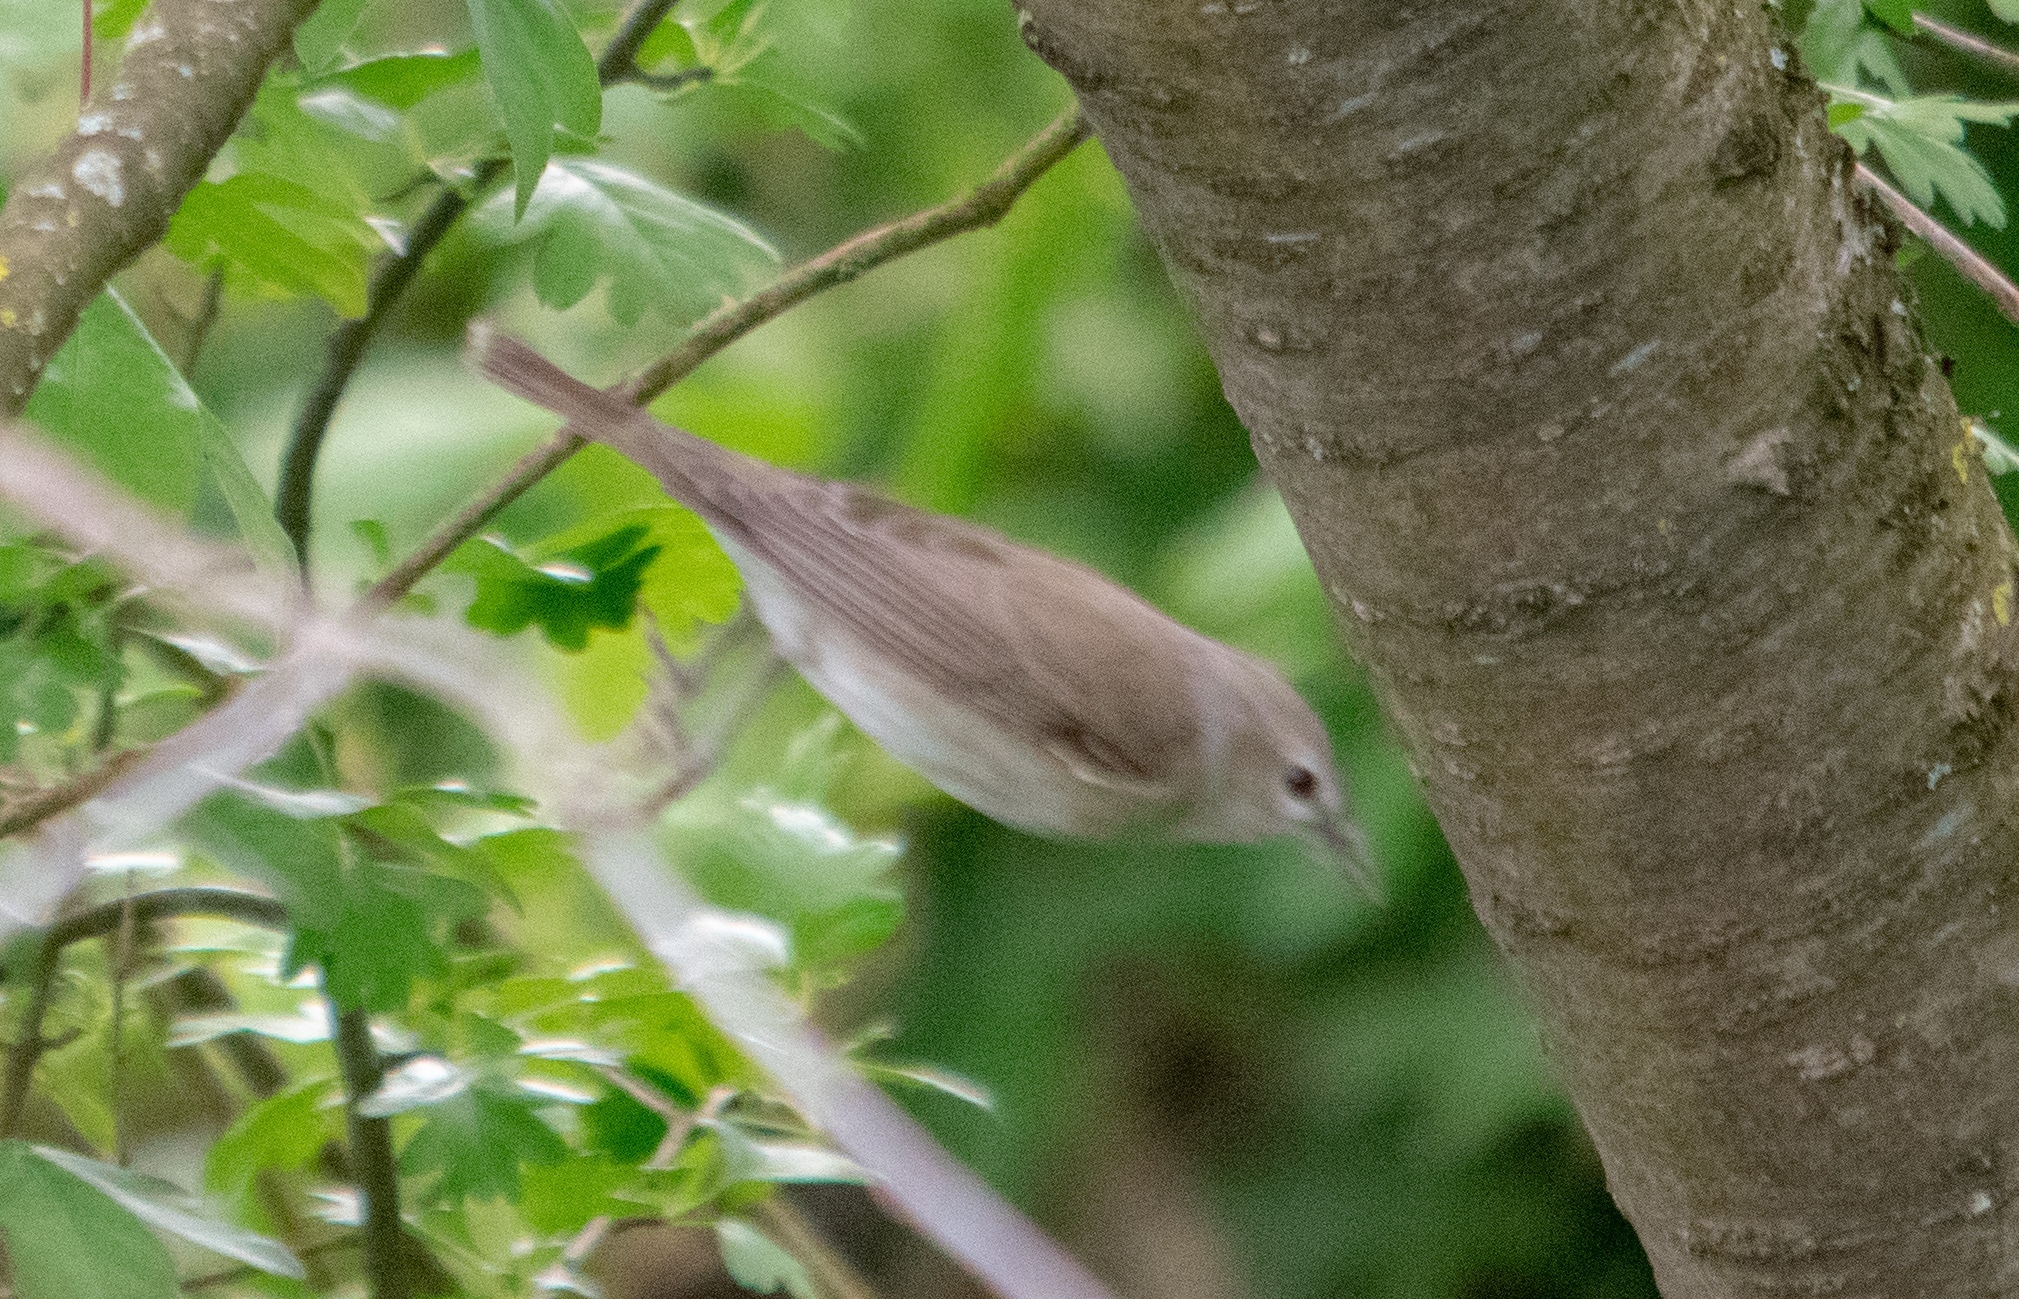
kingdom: Animalia
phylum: Chordata
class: Aves
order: Passeriformes
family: Sylviidae
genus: Sylvia
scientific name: Sylvia borin
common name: Garden warbler
